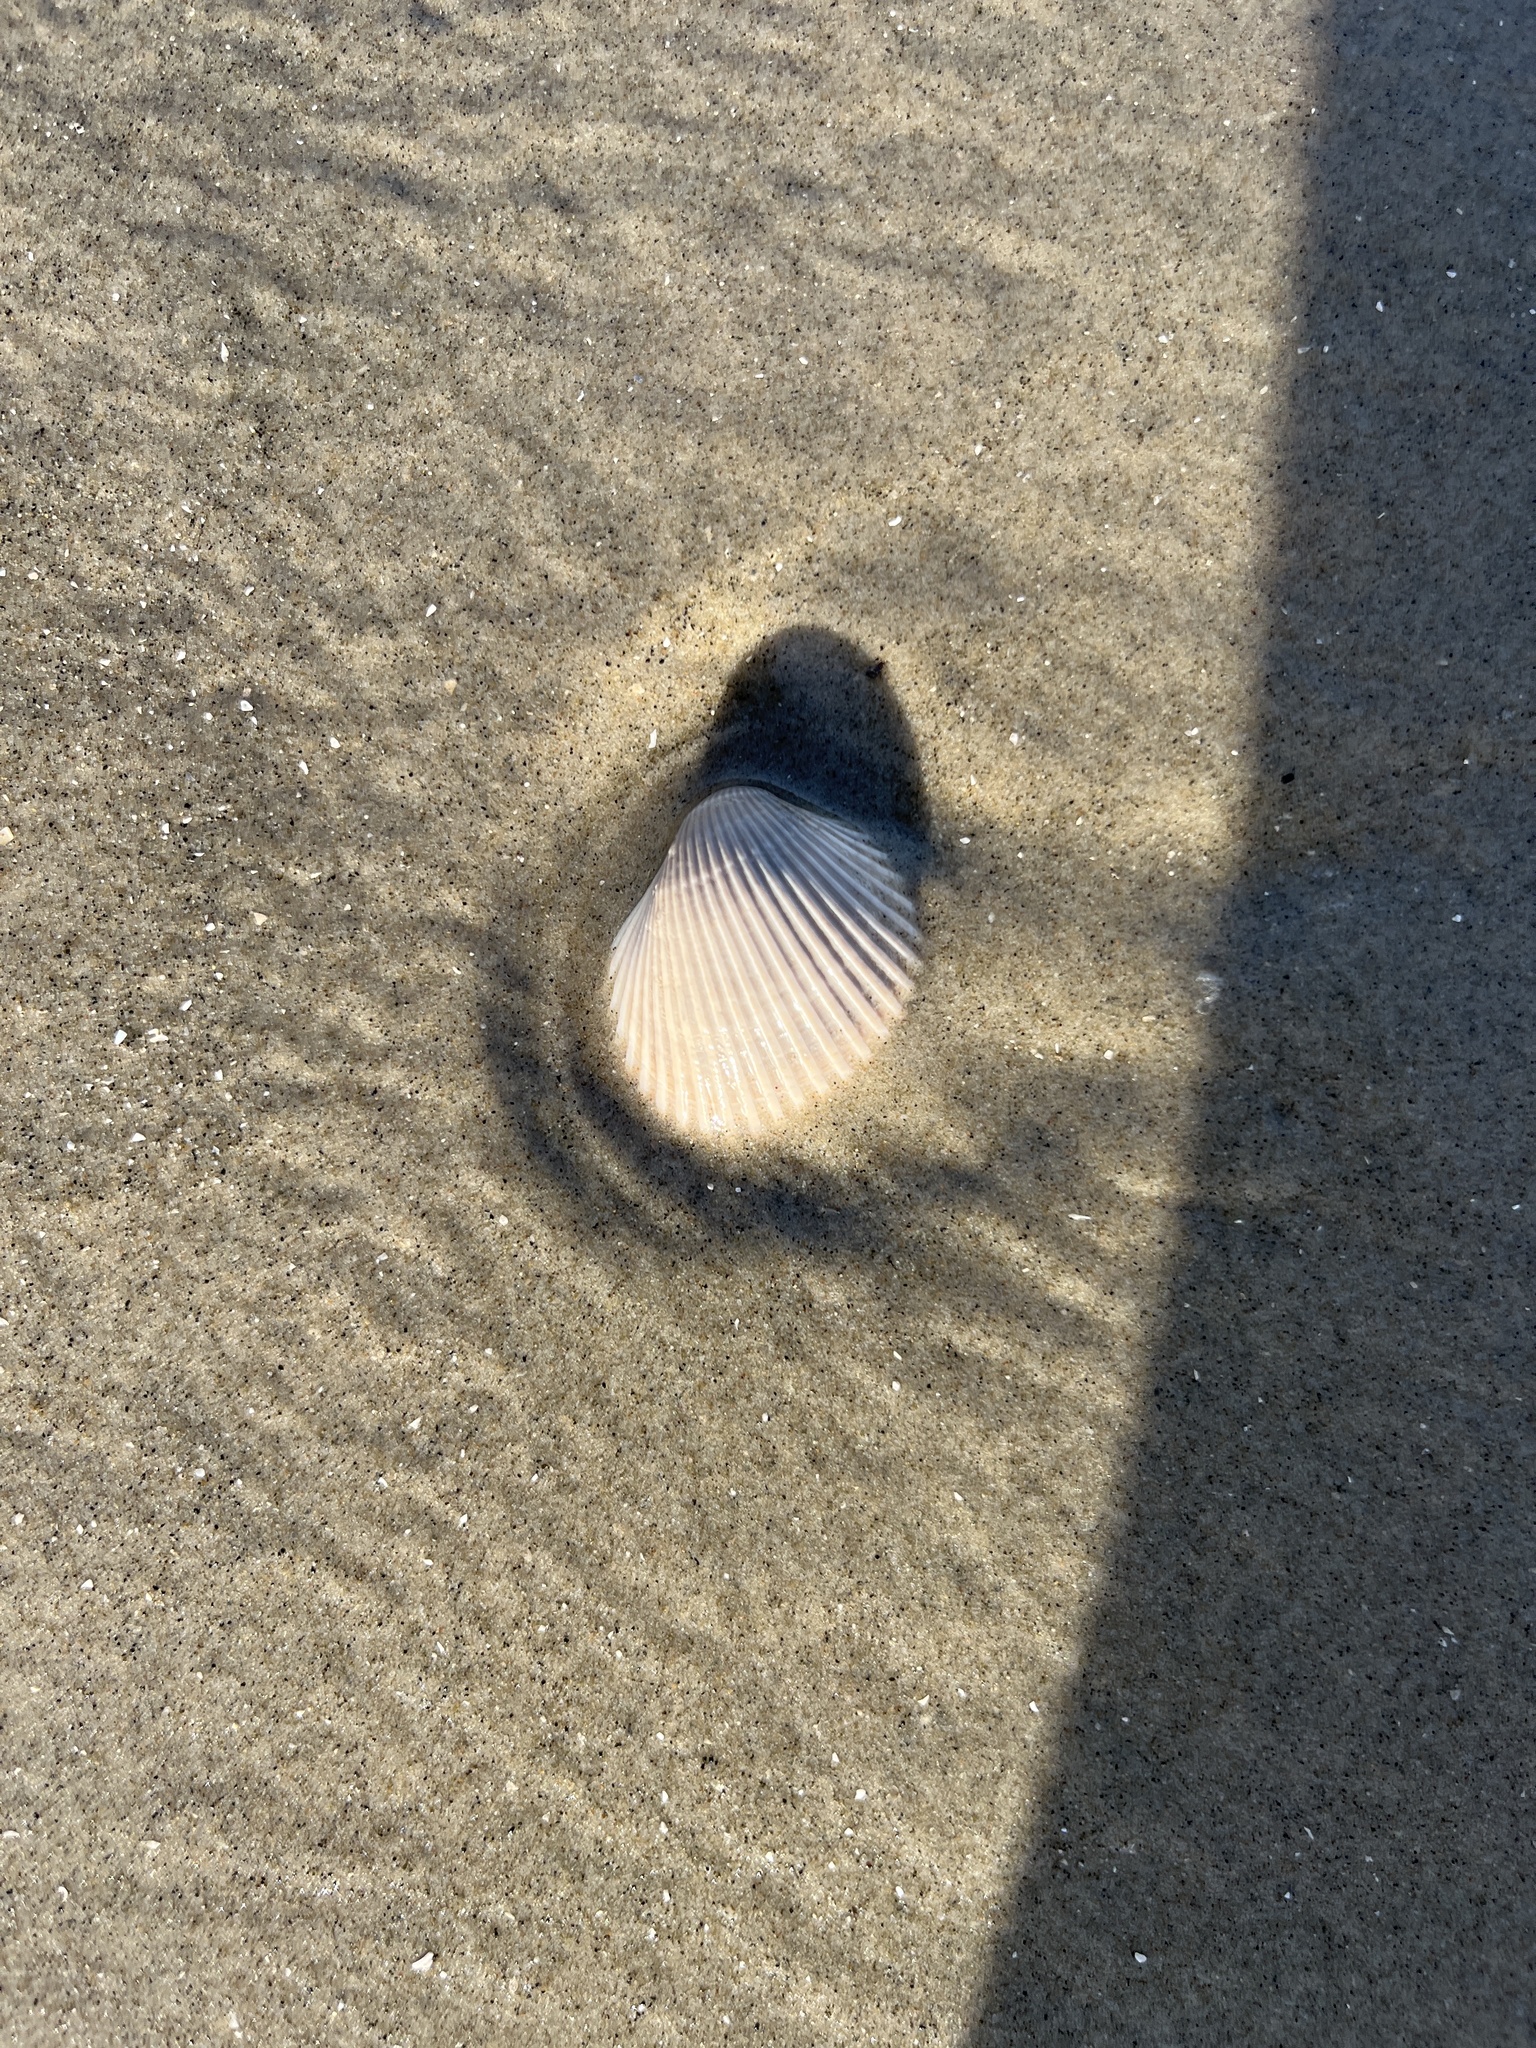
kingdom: Animalia
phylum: Mollusca
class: Bivalvia
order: Arcida
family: Arcidae
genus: Lunarca
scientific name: Lunarca ovalis
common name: Blood ark
